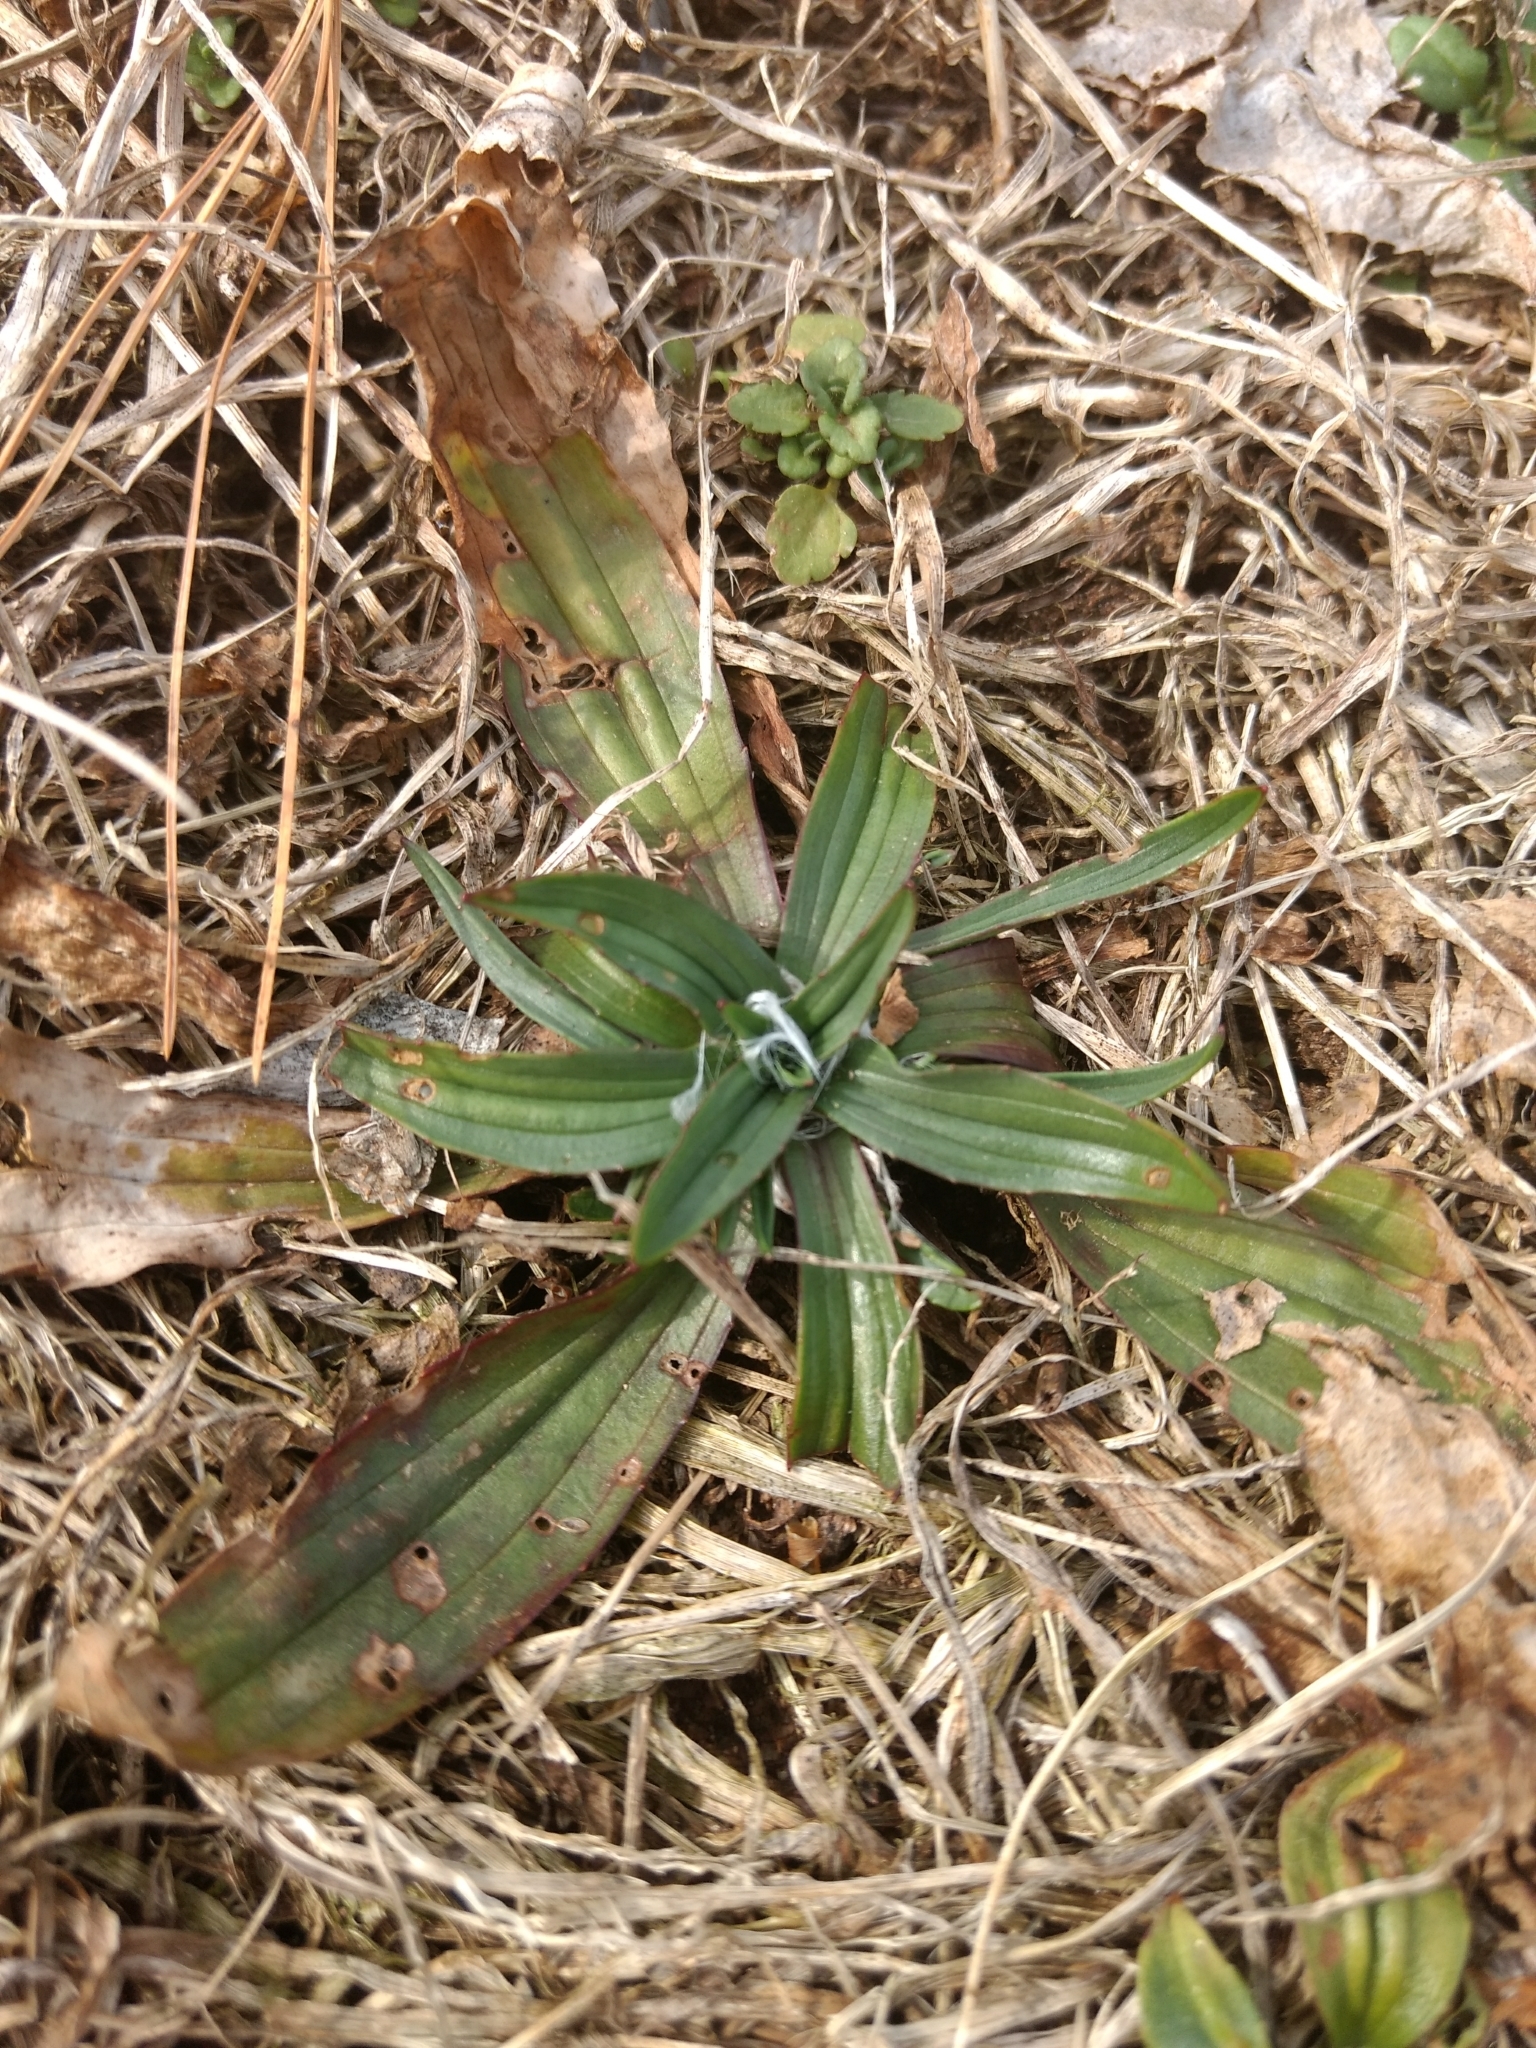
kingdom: Plantae
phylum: Tracheophyta
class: Magnoliopsida
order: Lamiales
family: Plantaginaceae
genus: Plantago
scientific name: Plantago lanceolata
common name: Ribwort plantain
